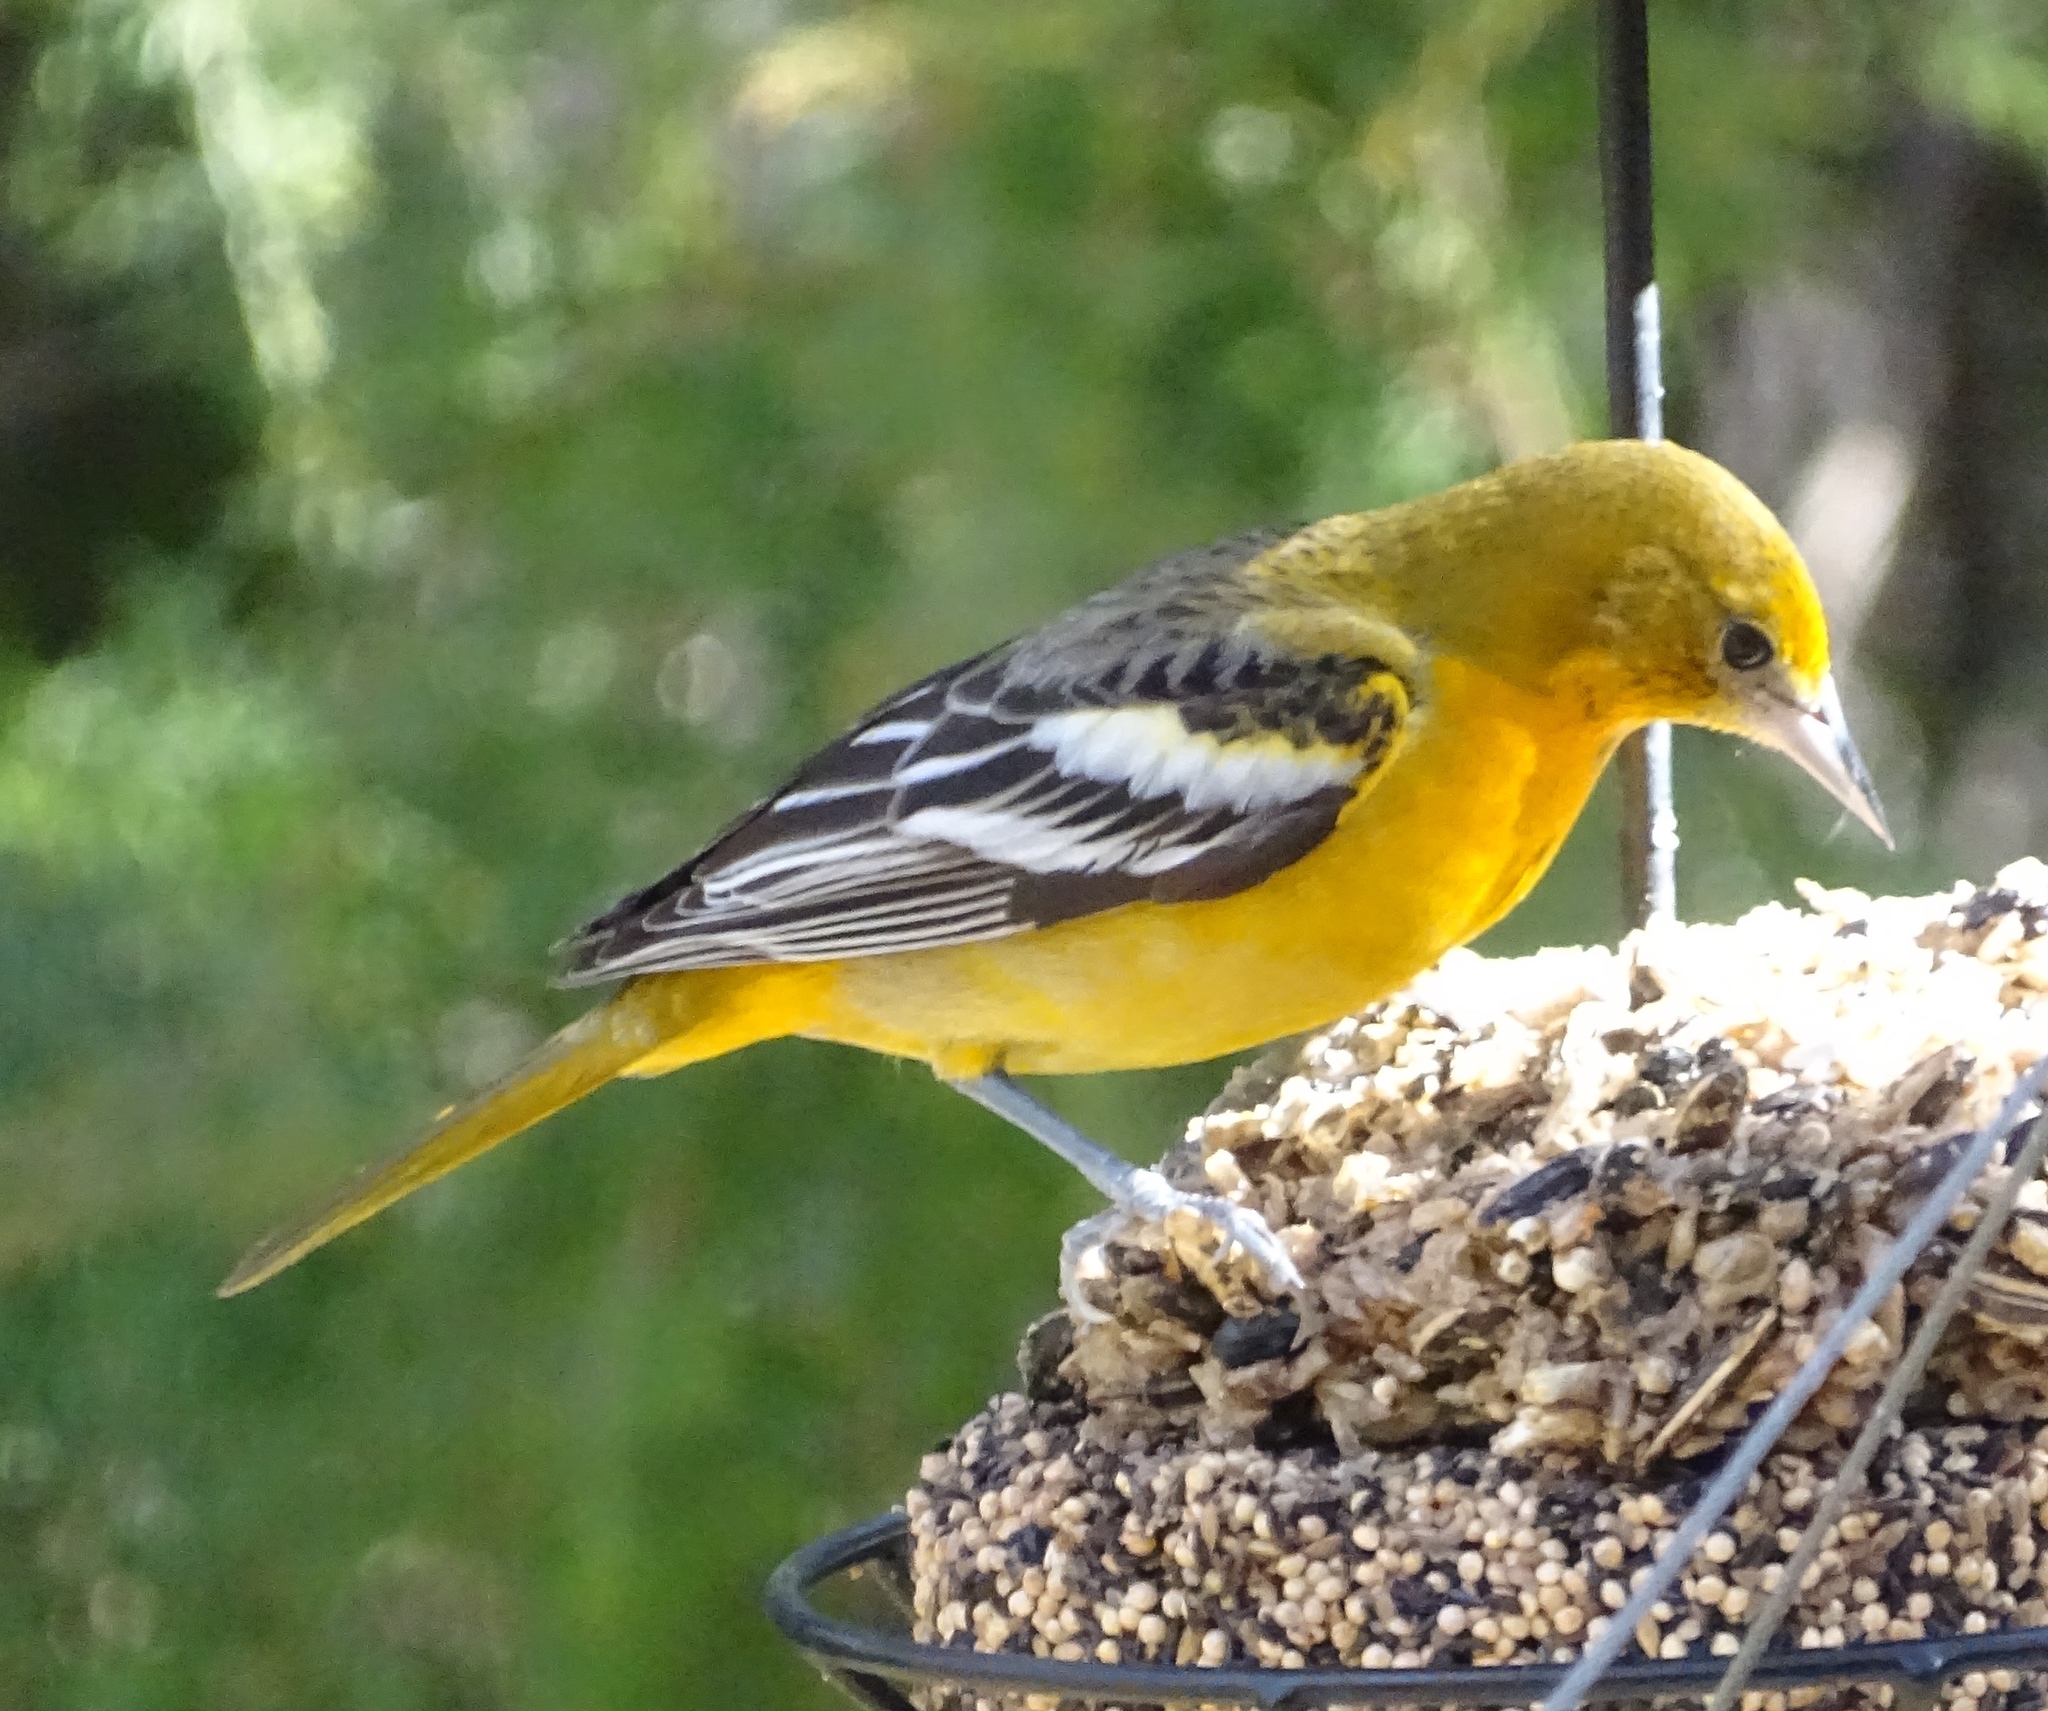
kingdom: Animalia
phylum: Chordata
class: Aves
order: Passeriformes
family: Icteridae
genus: Icterus
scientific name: Icterus galbula
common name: Baltimore oriole
